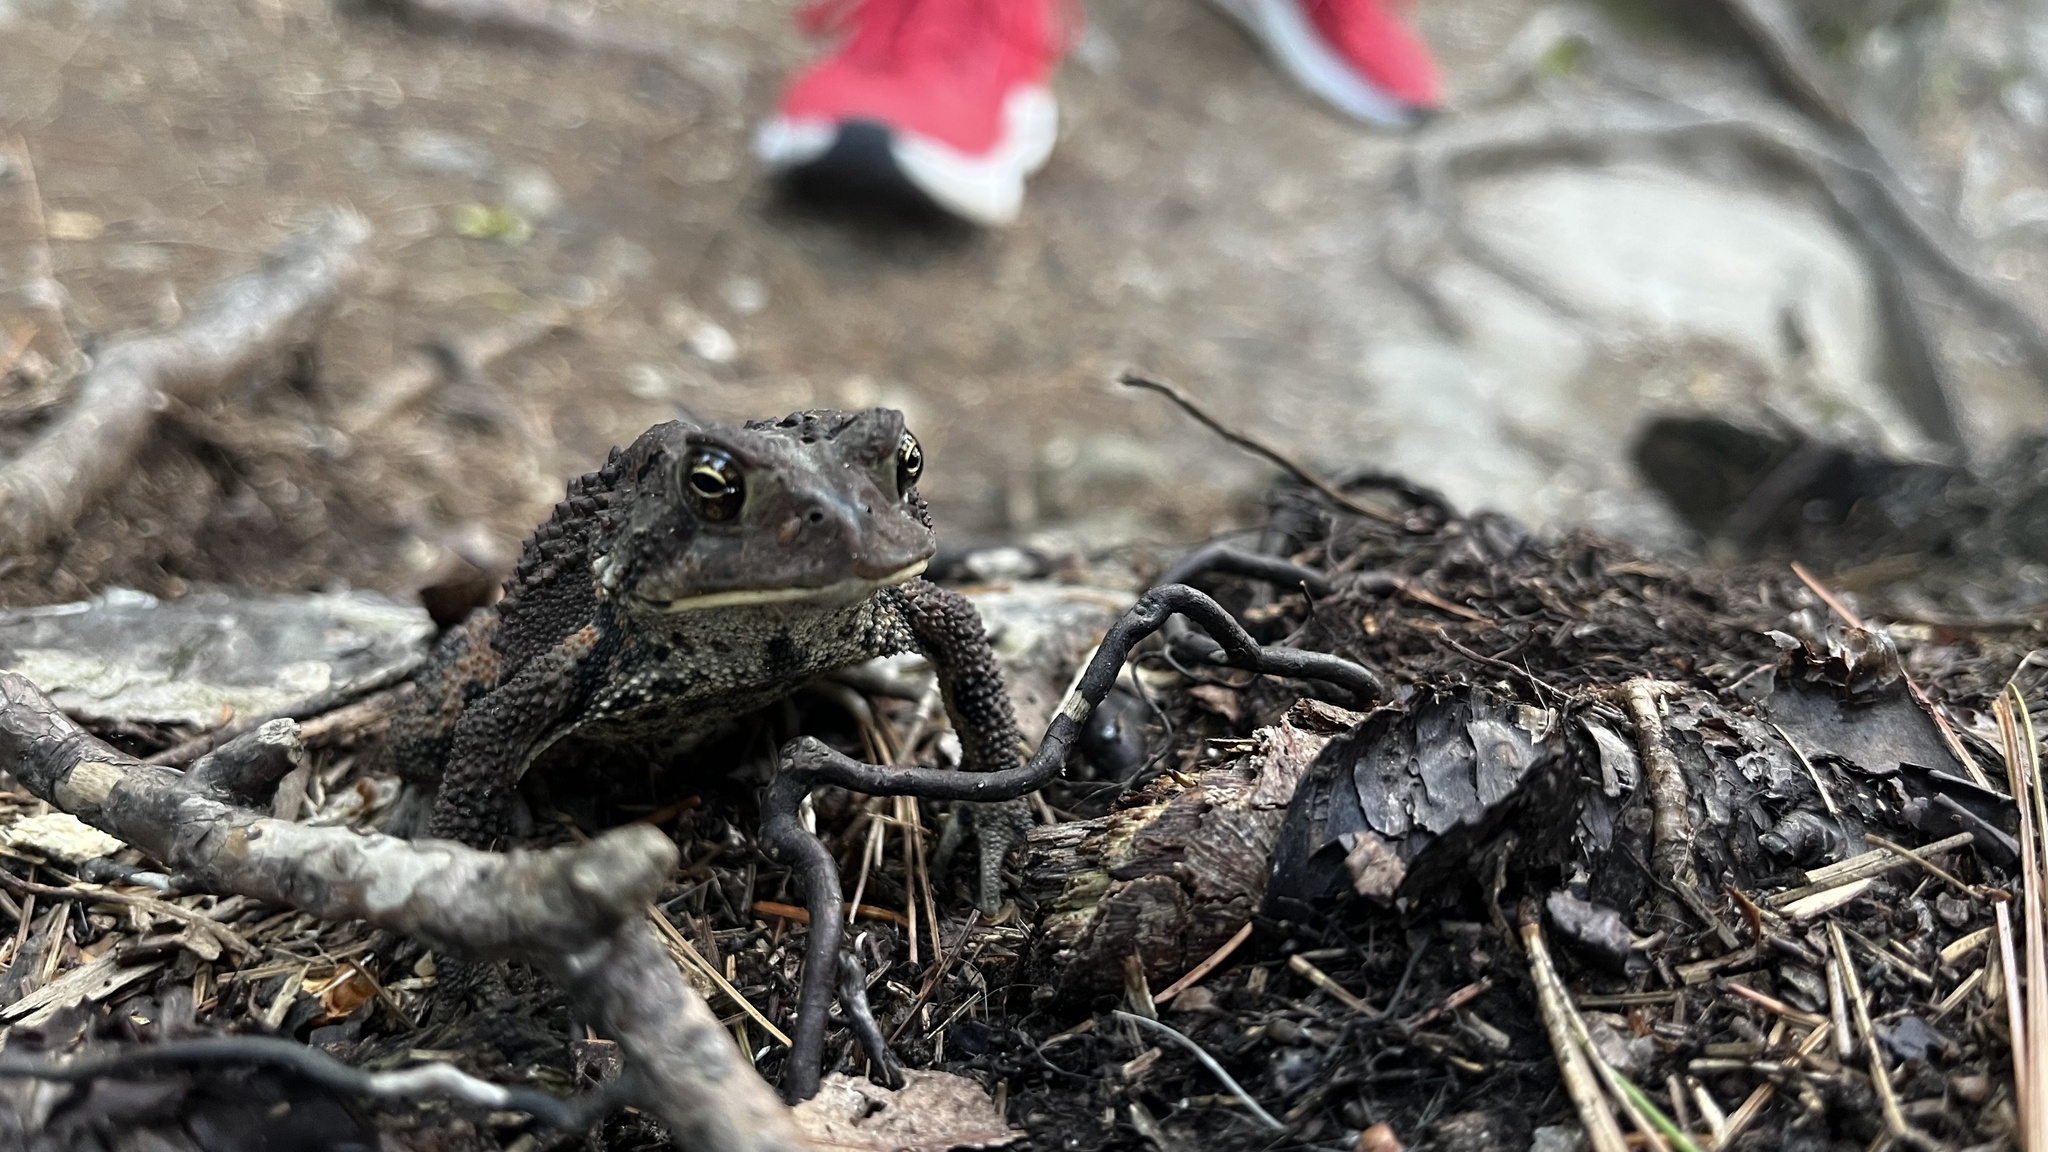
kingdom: Animalia
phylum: Chordata
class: Amphibia
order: Anura
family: Bufonidae
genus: Anaxyrus
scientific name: Anaxyrus americanus
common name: American toad
